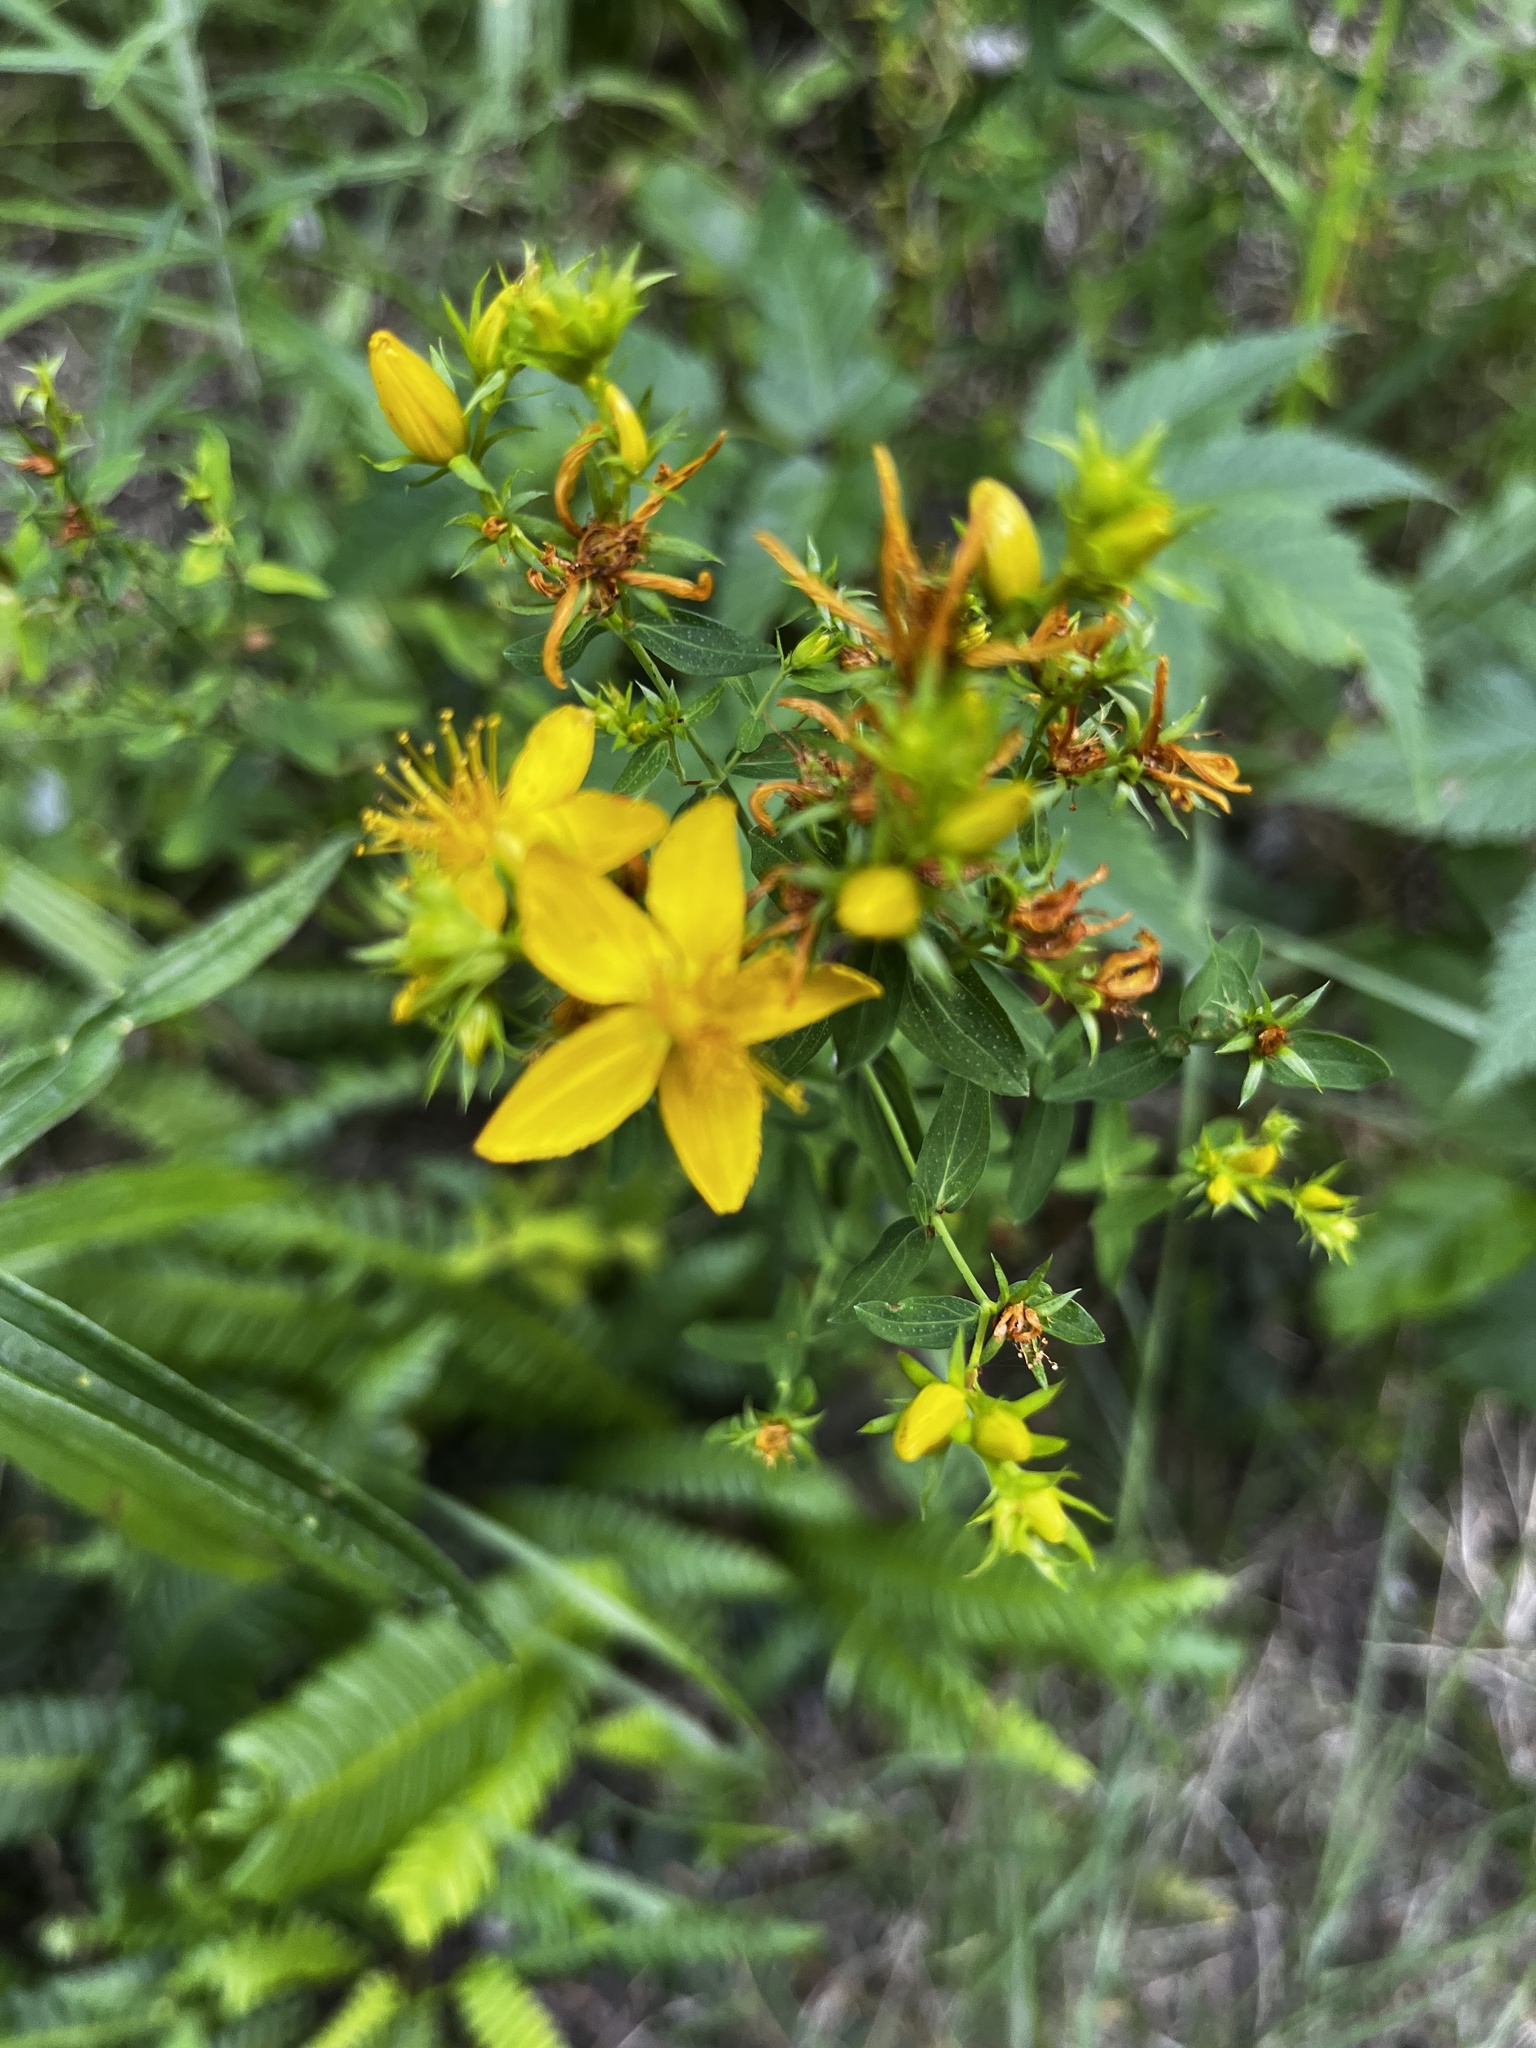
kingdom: Plantae
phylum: Tracheophyta
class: Magnoliopsida
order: Malpighiales
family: Hypericaceae
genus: Hypericum
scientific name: Hypericum perforatum
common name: Common st. johnswort
